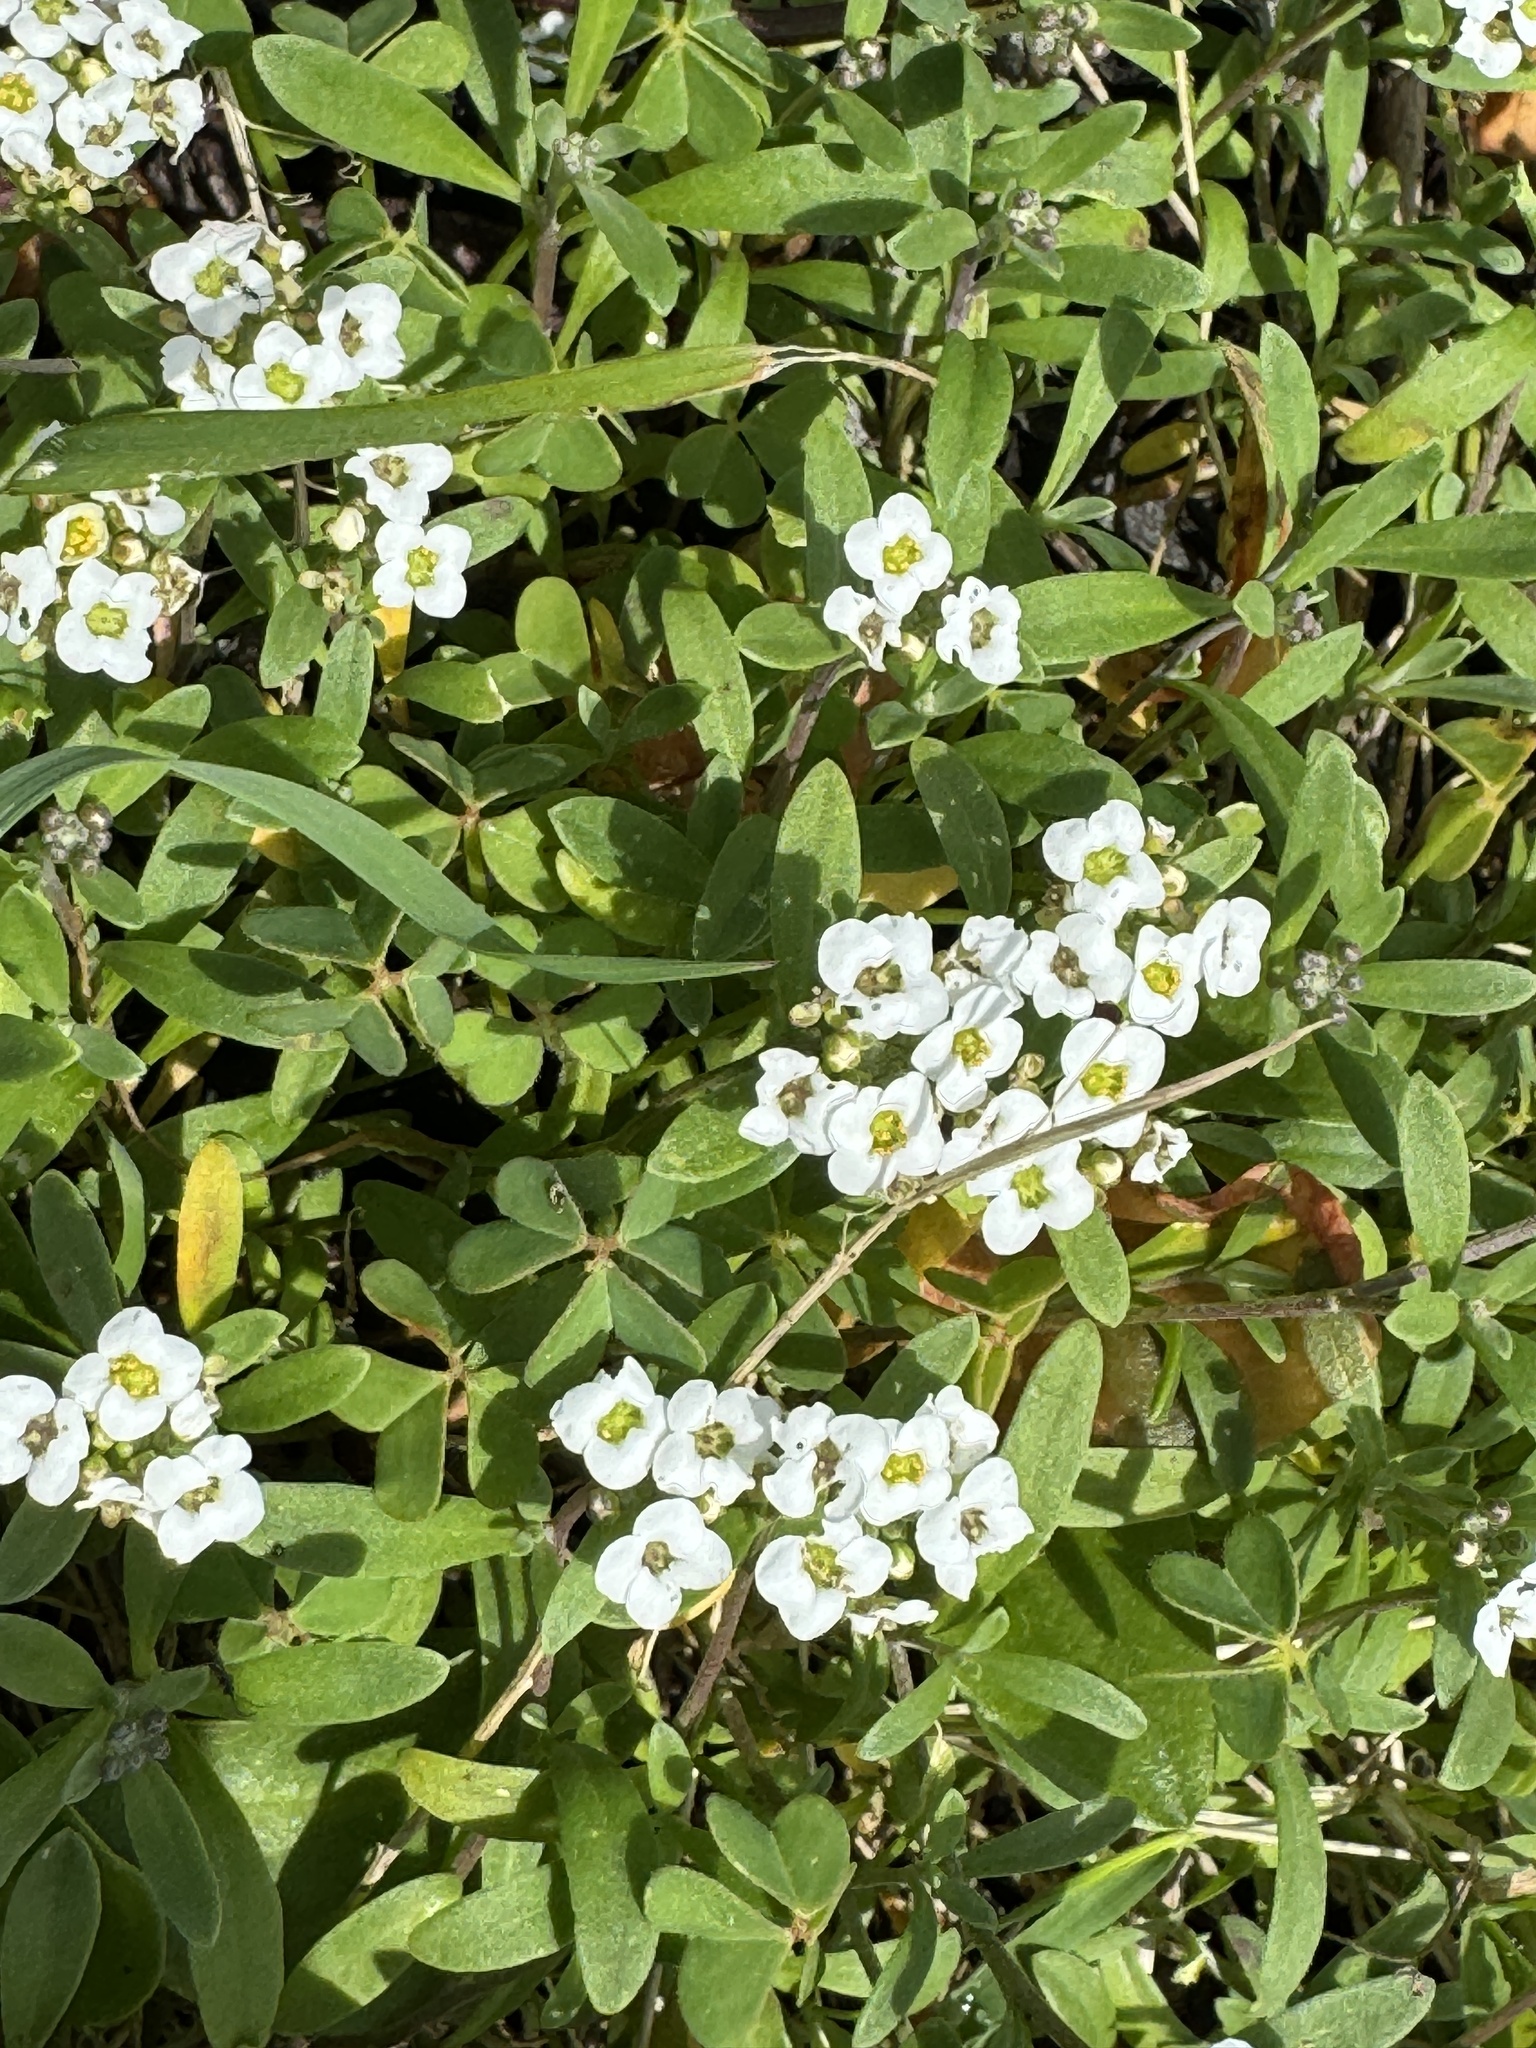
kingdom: Plantae
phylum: Tracheophyta
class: Magnoliopsida
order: Brassicales
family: Brassicaceae
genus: Lobularia
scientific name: Lobularia maritima
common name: Sweet alison
